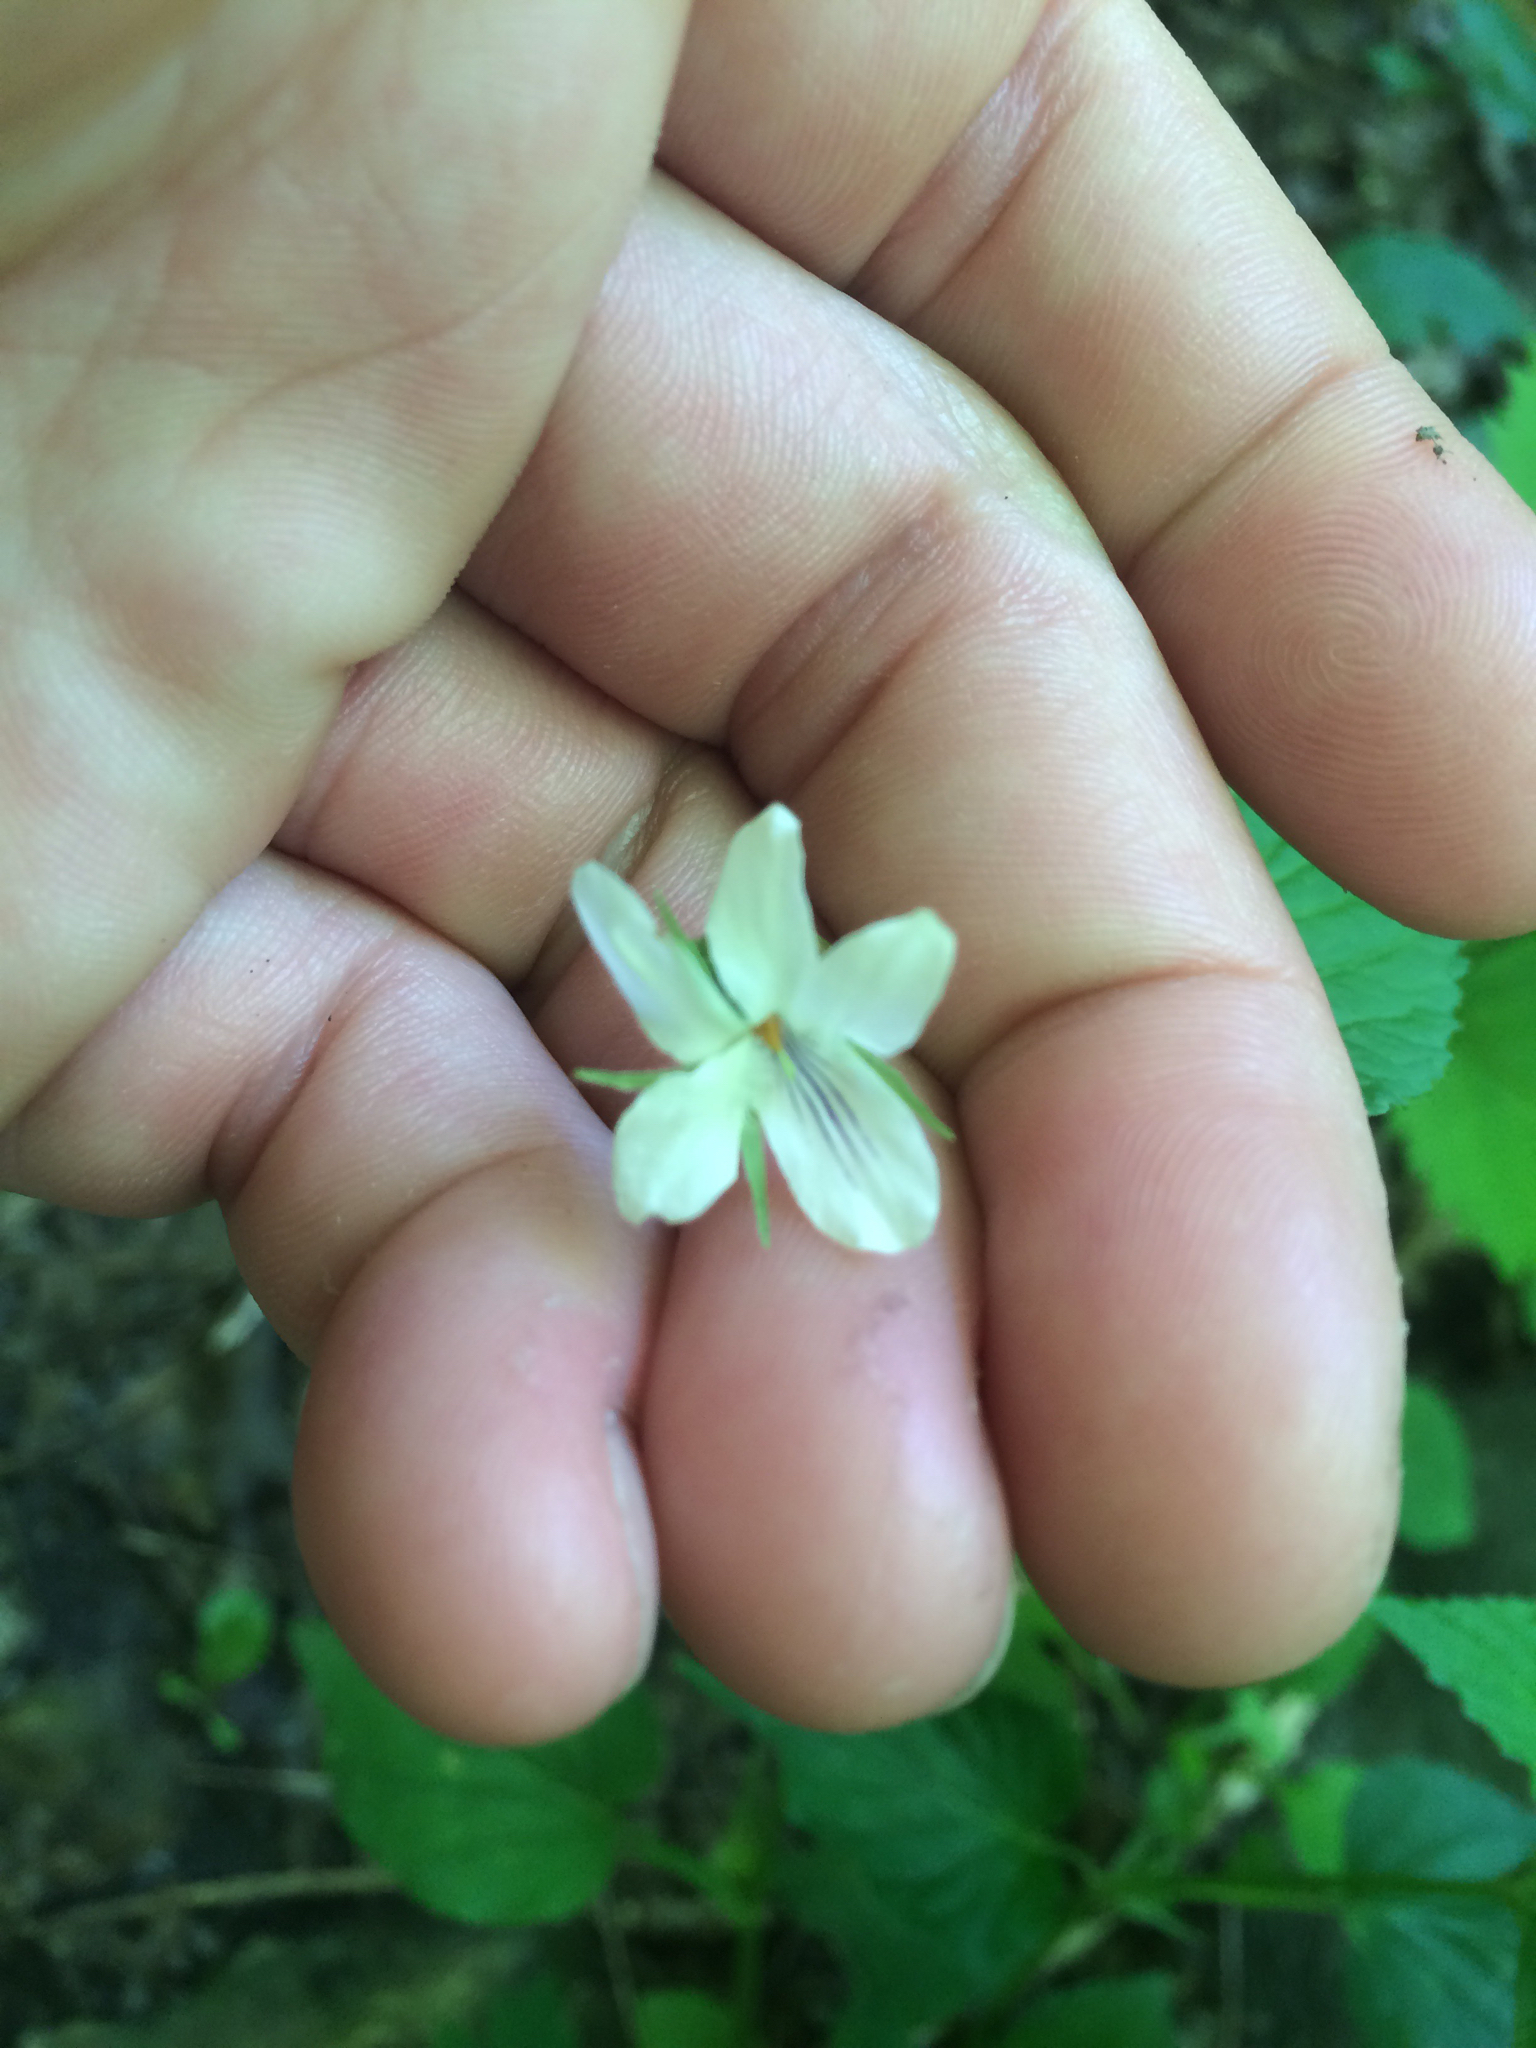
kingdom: Plantae
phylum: Tracheophyta
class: Magnoliopsida
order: Malpighiales
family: Violaceae
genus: Viola
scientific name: Viola striata
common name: Cream violet
